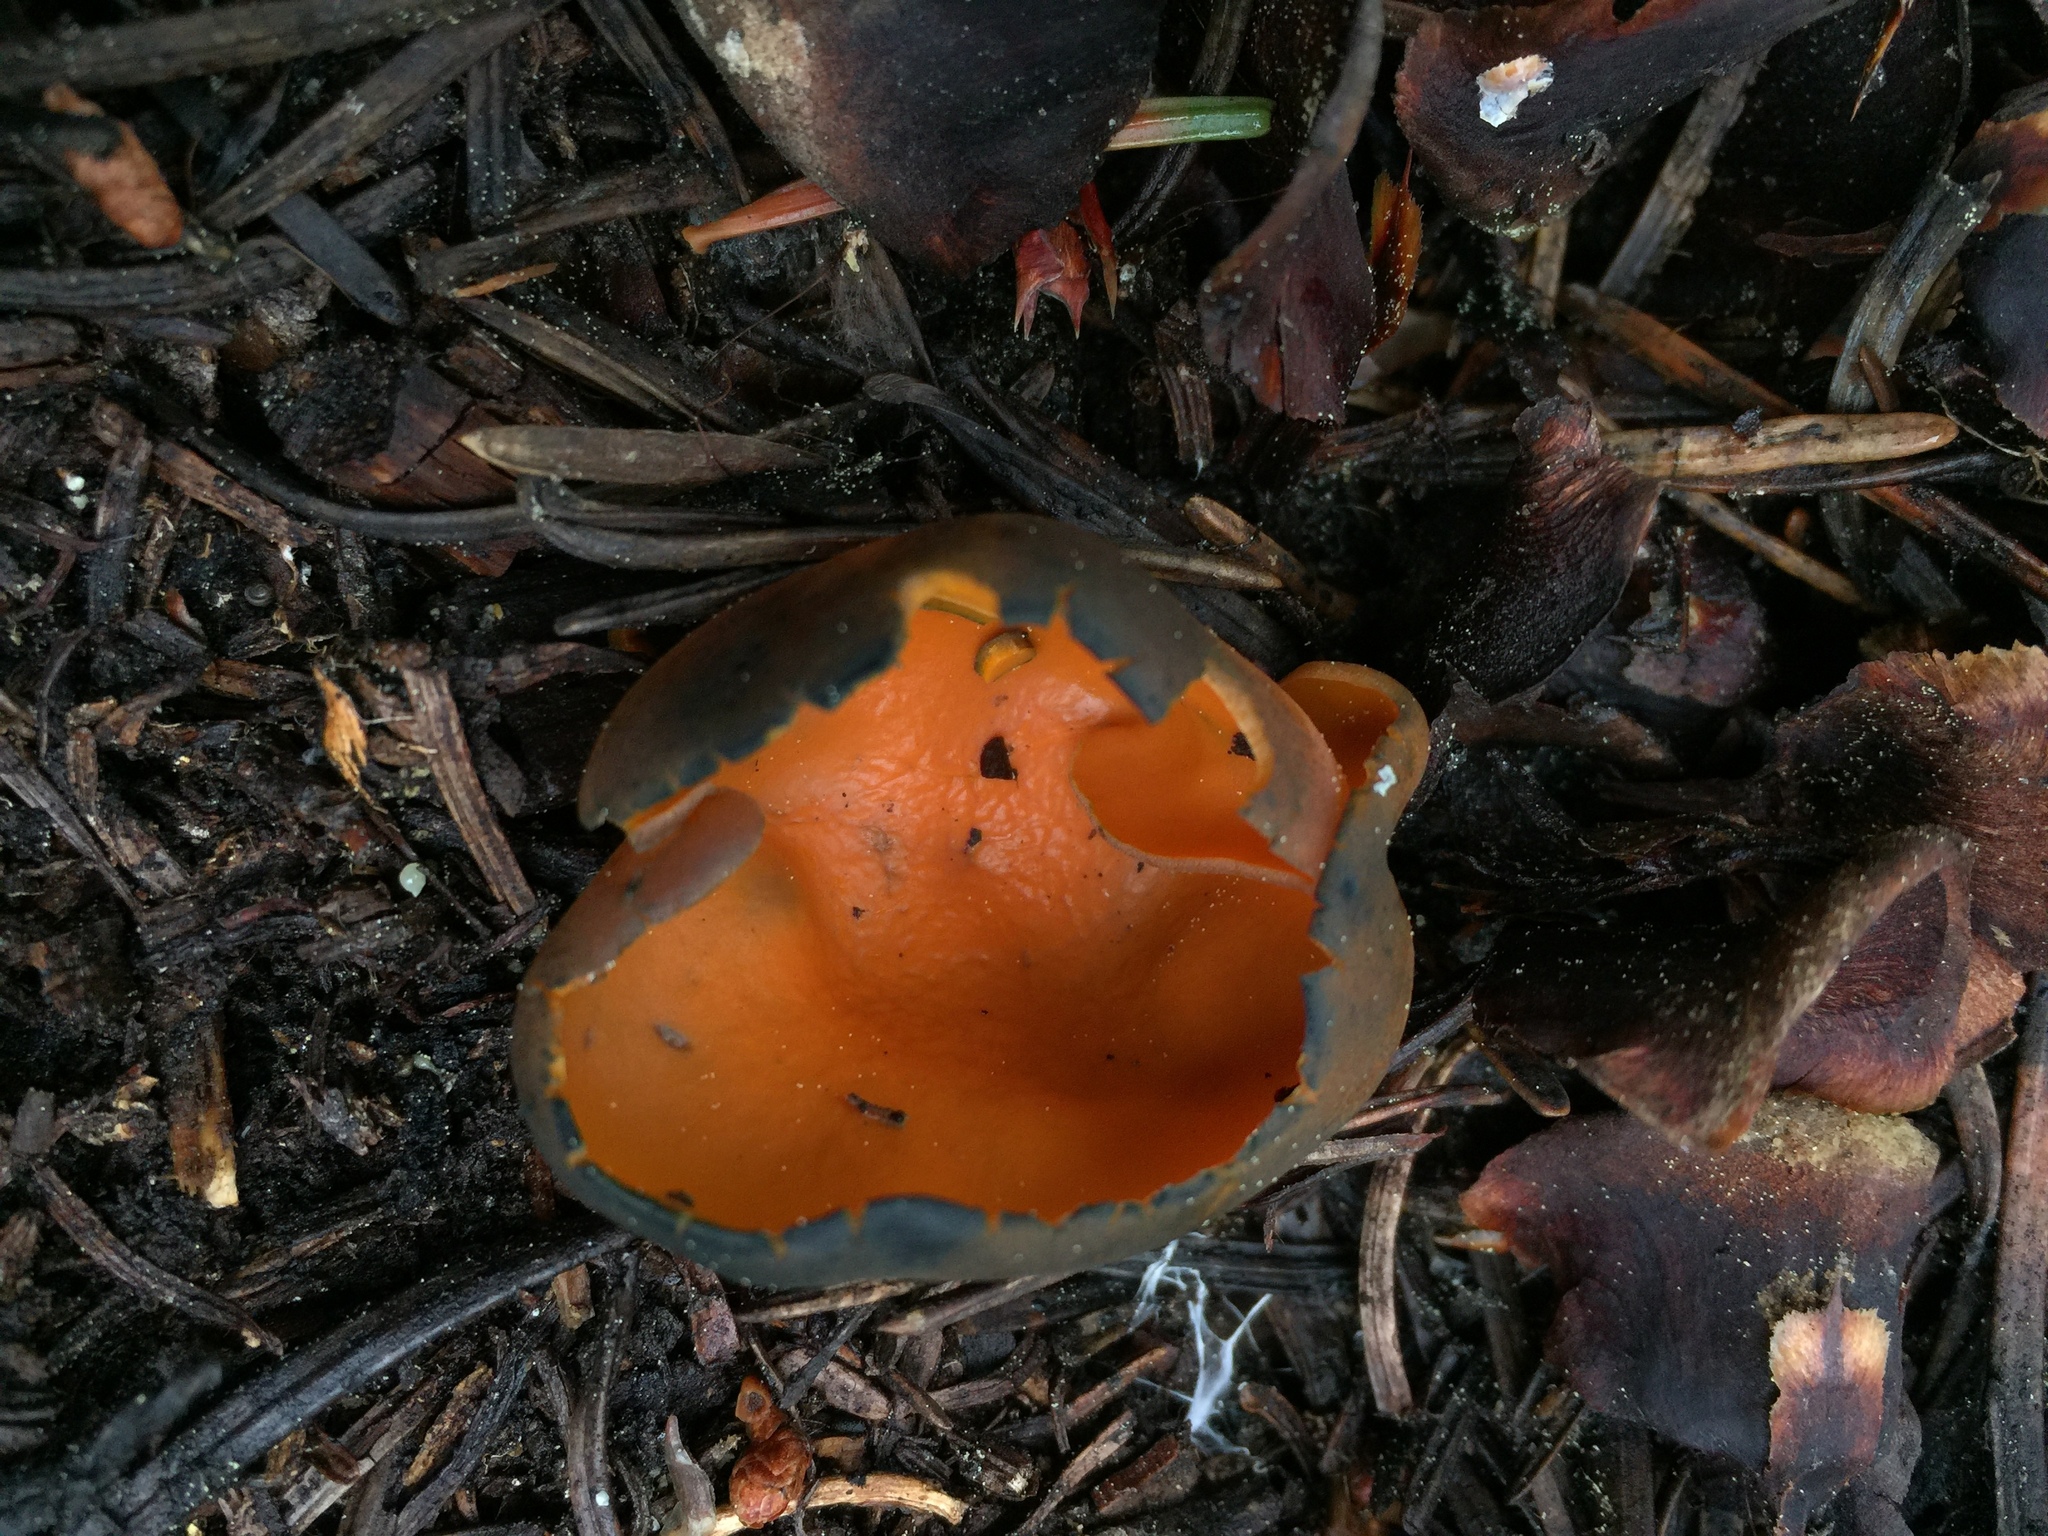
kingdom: Fungi
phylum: Ascomycota
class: Pezizomycetes
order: Pezizales
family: Caloscyphaceae
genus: Caloscypha
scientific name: Caloscypha fulgens
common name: Golden cup
